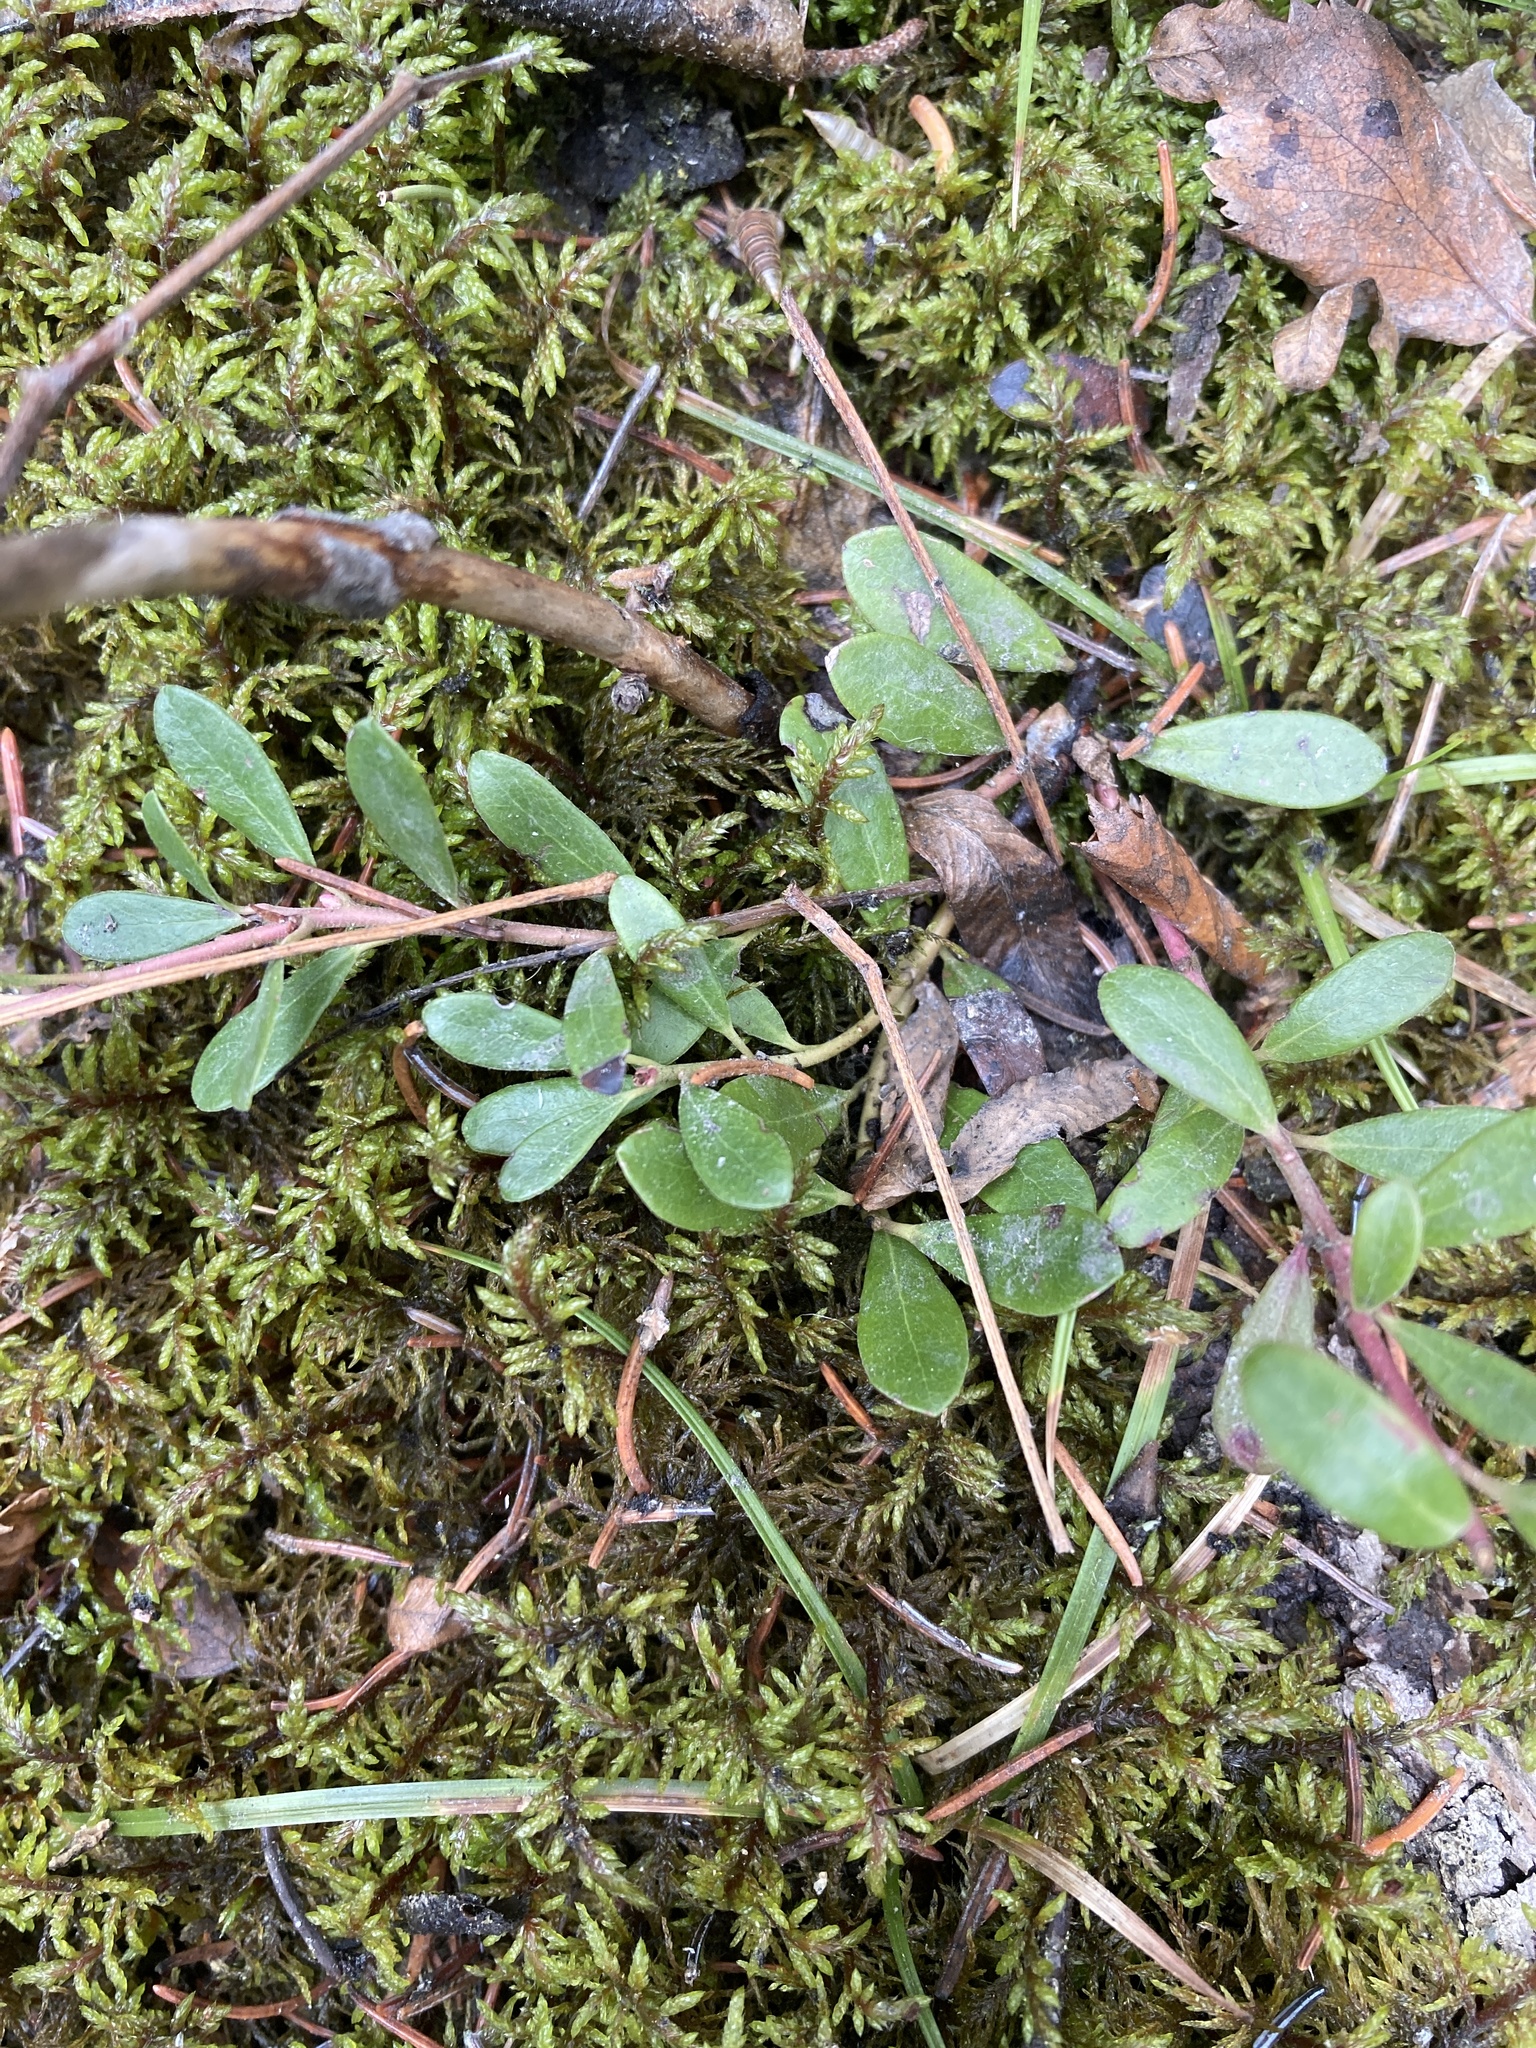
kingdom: Plantae
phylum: Tracheophyta
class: Magnoliopsida
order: Ericales
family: Ericaceae
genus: Arctostaphylos
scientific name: Arctostaphylos uva-ursi
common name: Bearberry
